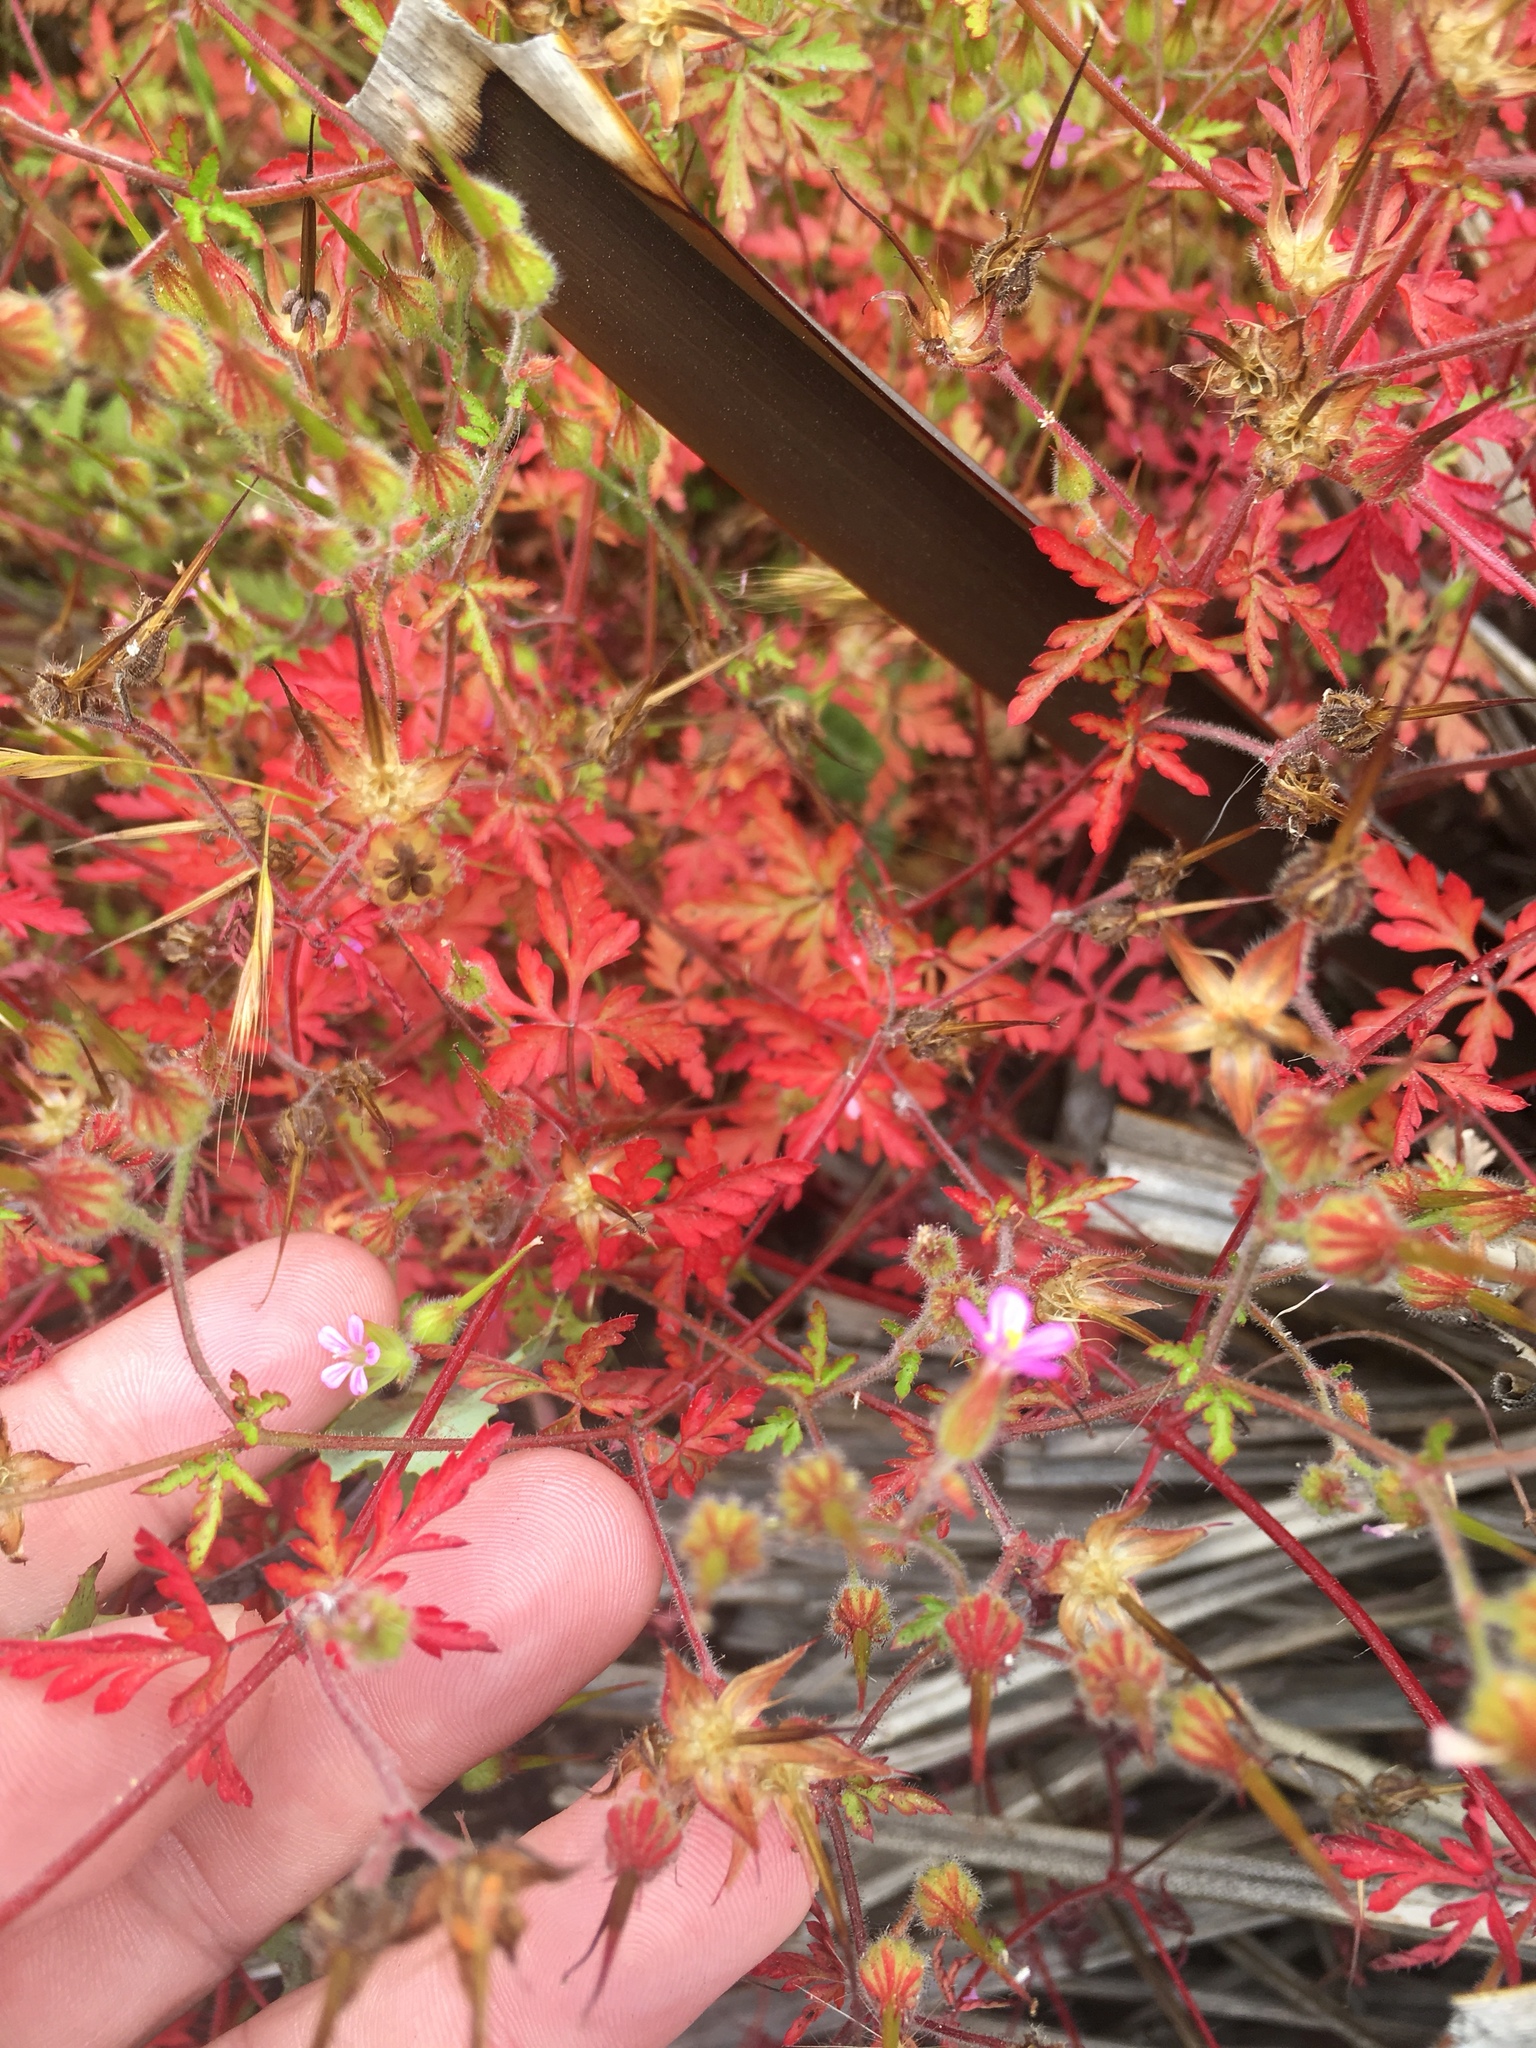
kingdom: Plantae
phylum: Tracheophyta
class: Magnoliopsida
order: Geraniales
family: Geraniaceae
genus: Geranium
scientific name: Geranium purpureum
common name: Little-robin
